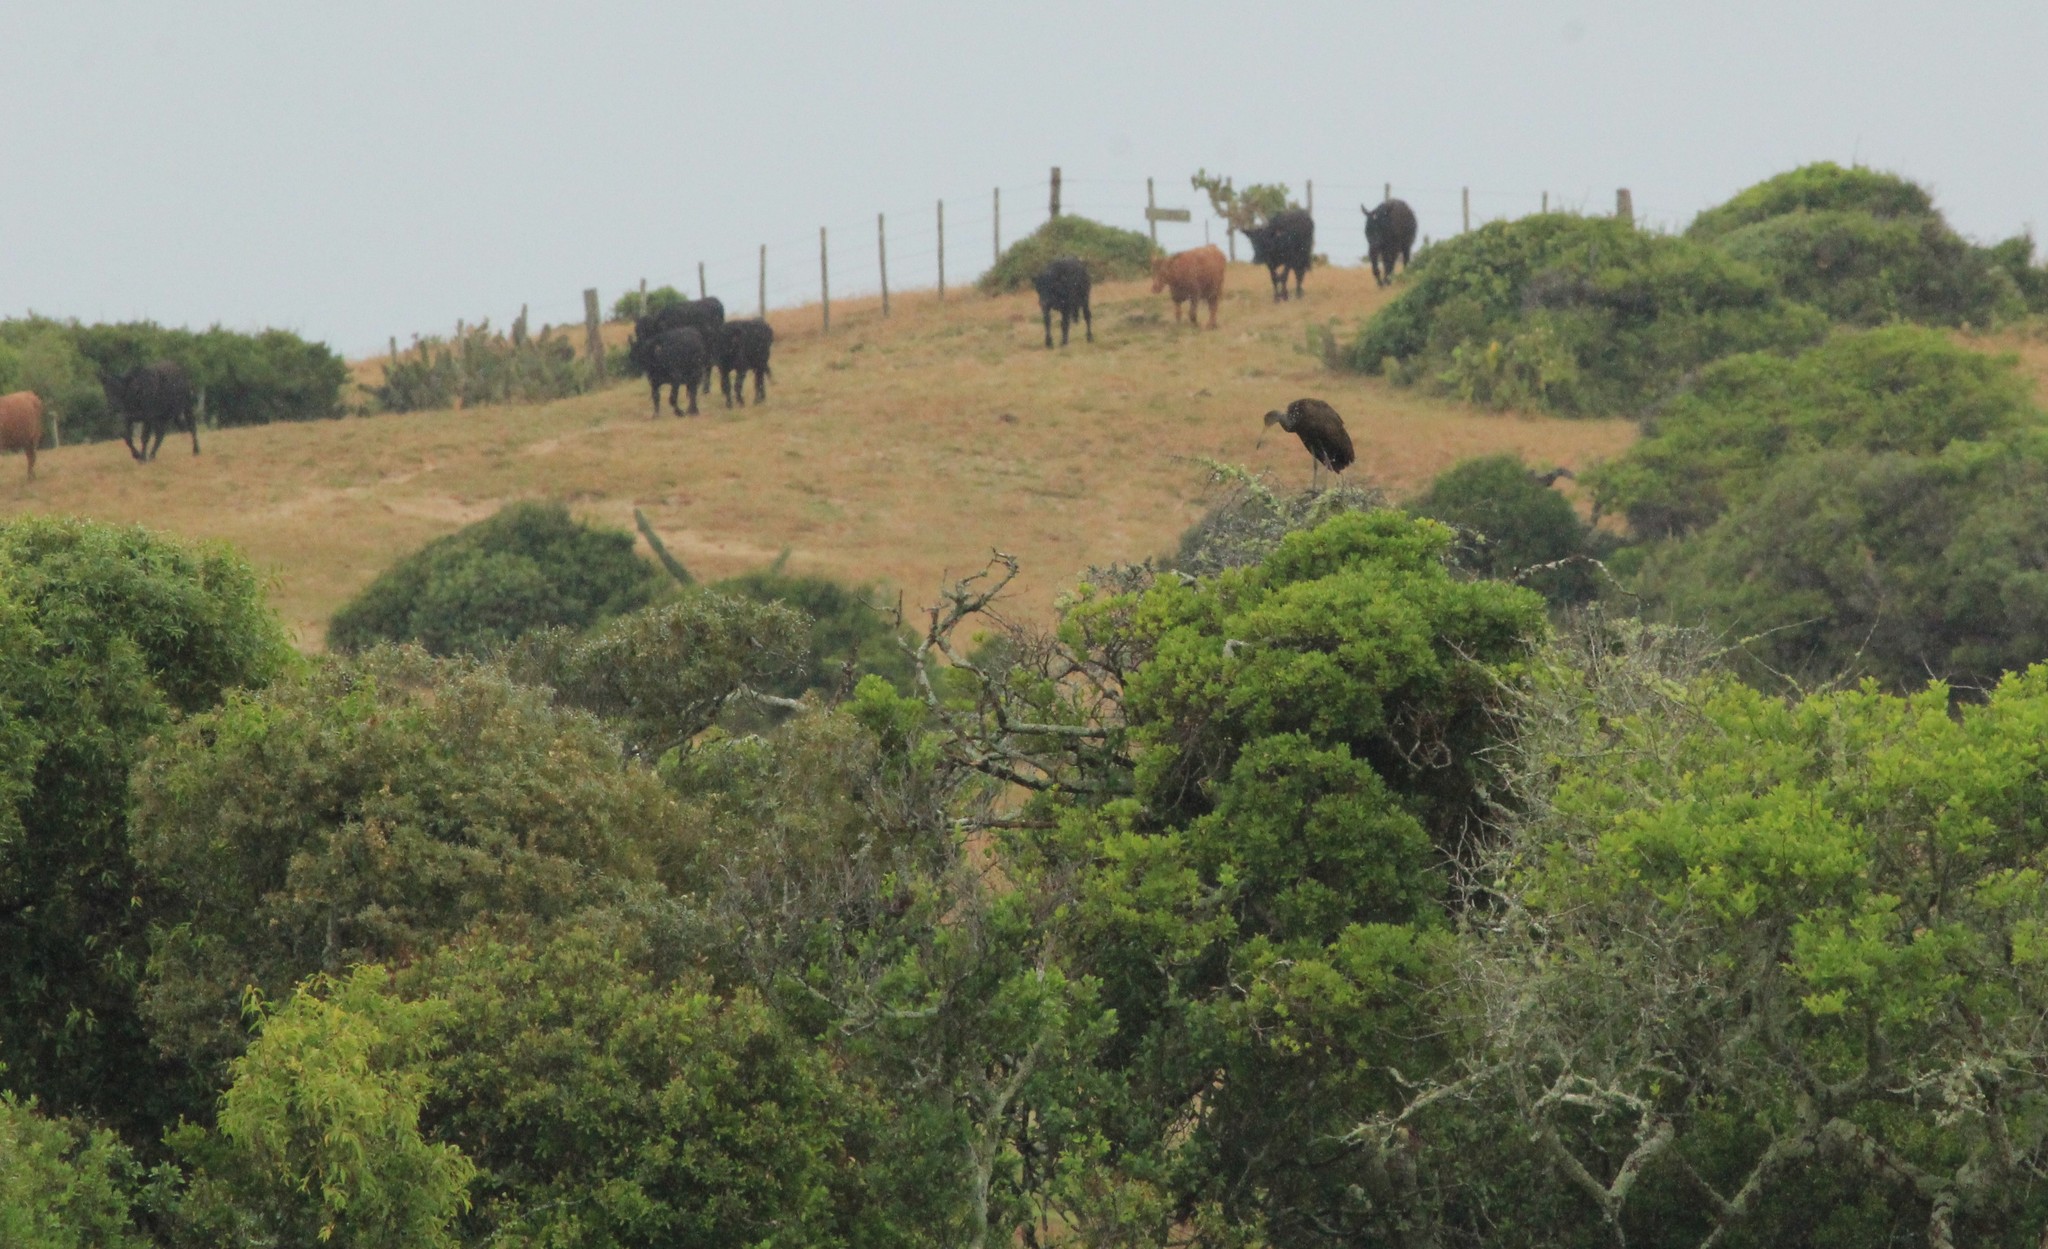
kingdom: Animalia
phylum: Chordata
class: Aves
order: Gruiformes
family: Aramidae
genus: Aramus
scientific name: Aramus guarauna
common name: Limpkin
